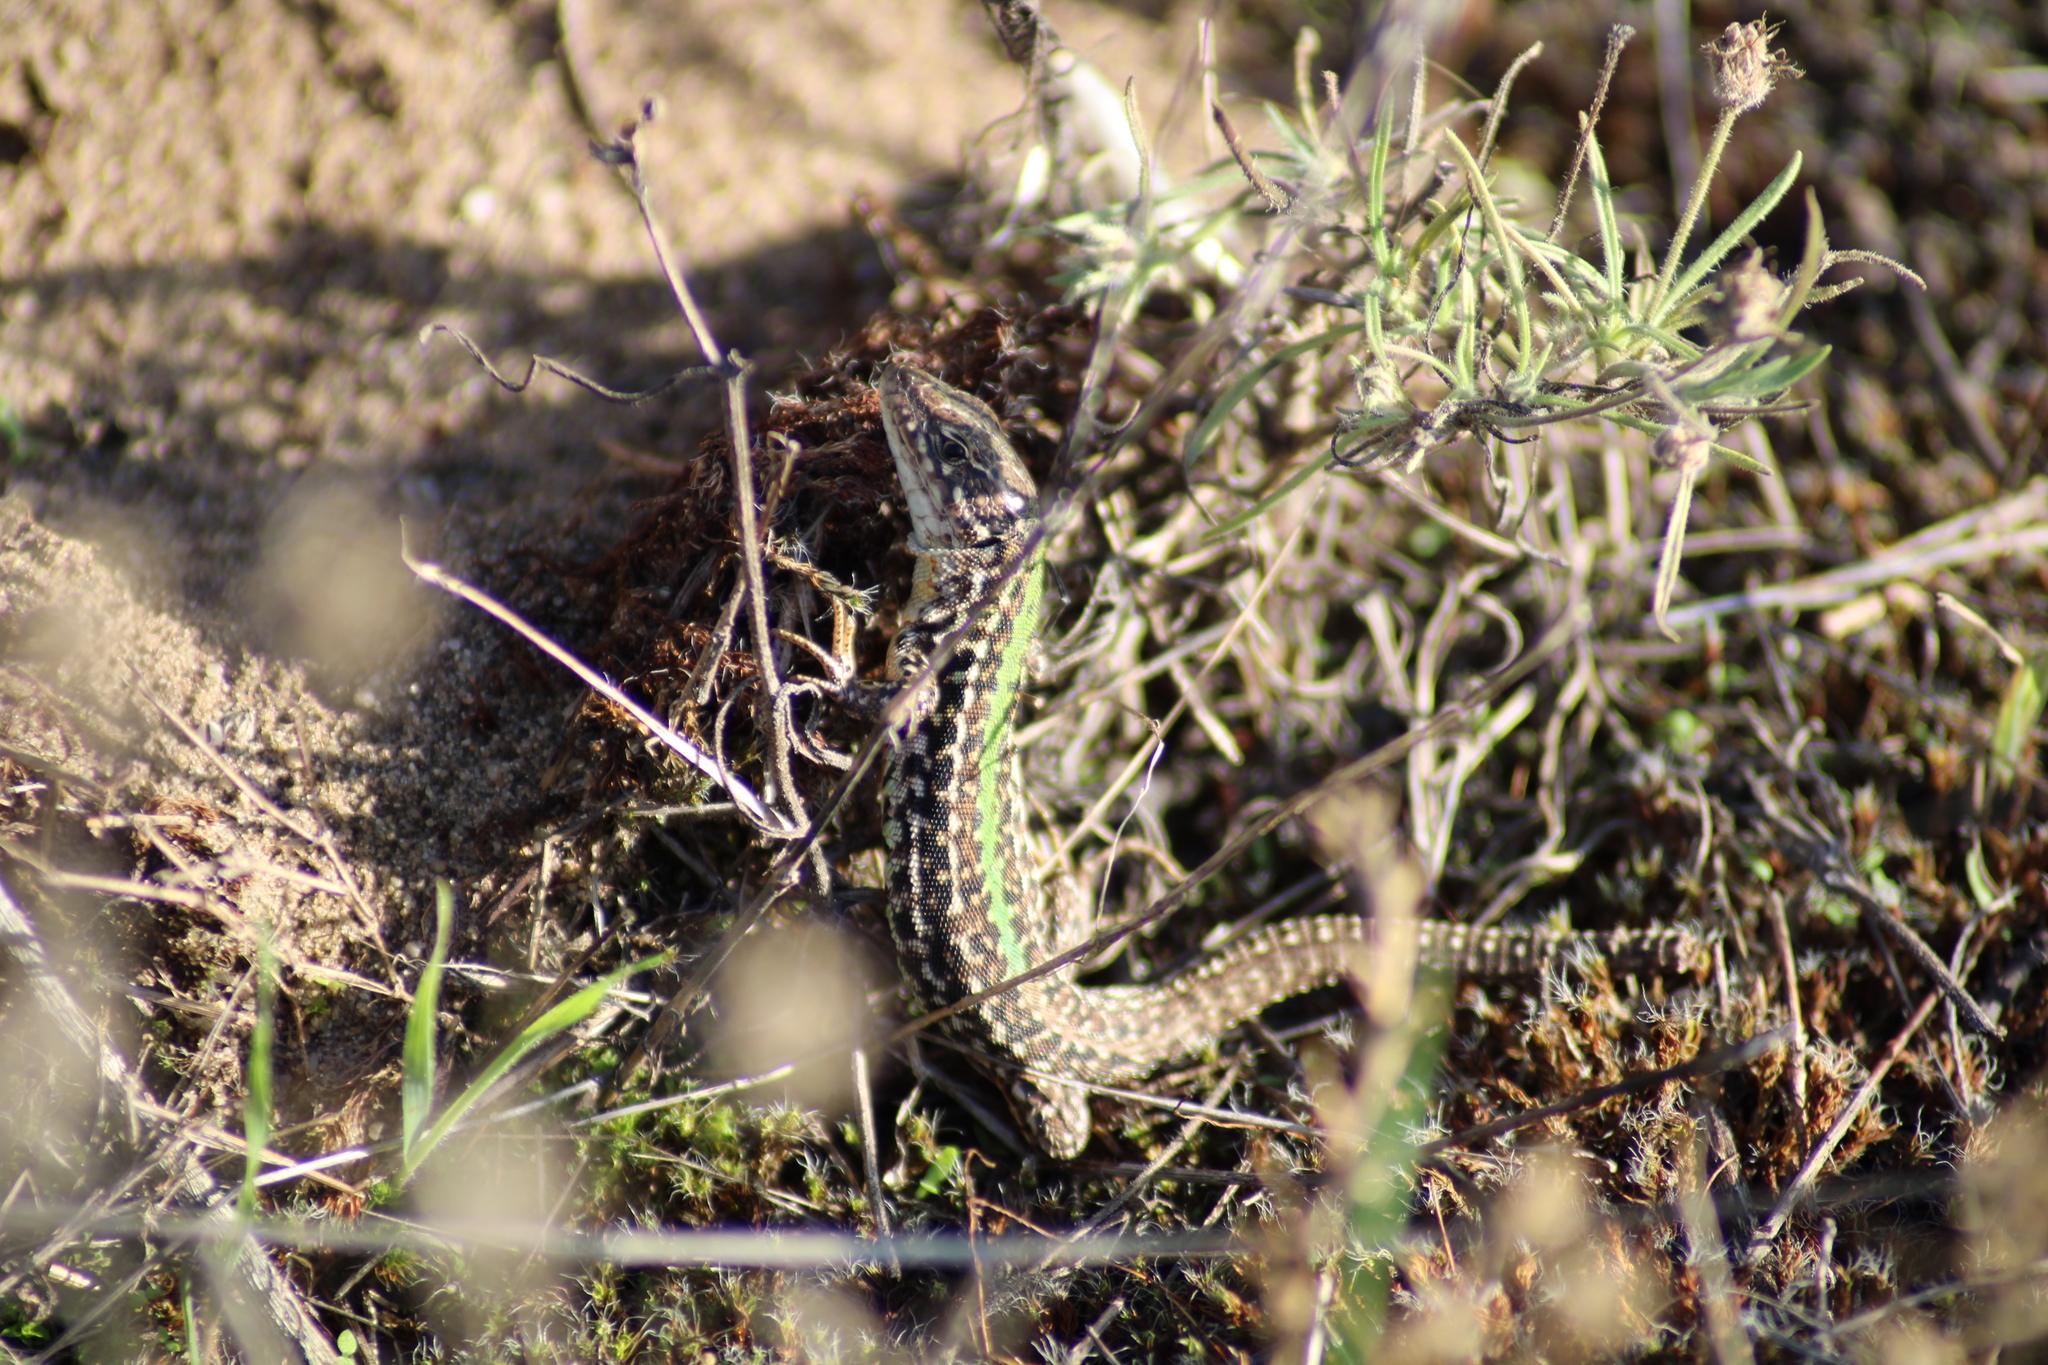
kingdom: Animalia
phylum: Chordata
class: Squamata
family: Lacertidae
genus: Podarcis
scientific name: Podarcis tauricus
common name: Balkan wall lizard
